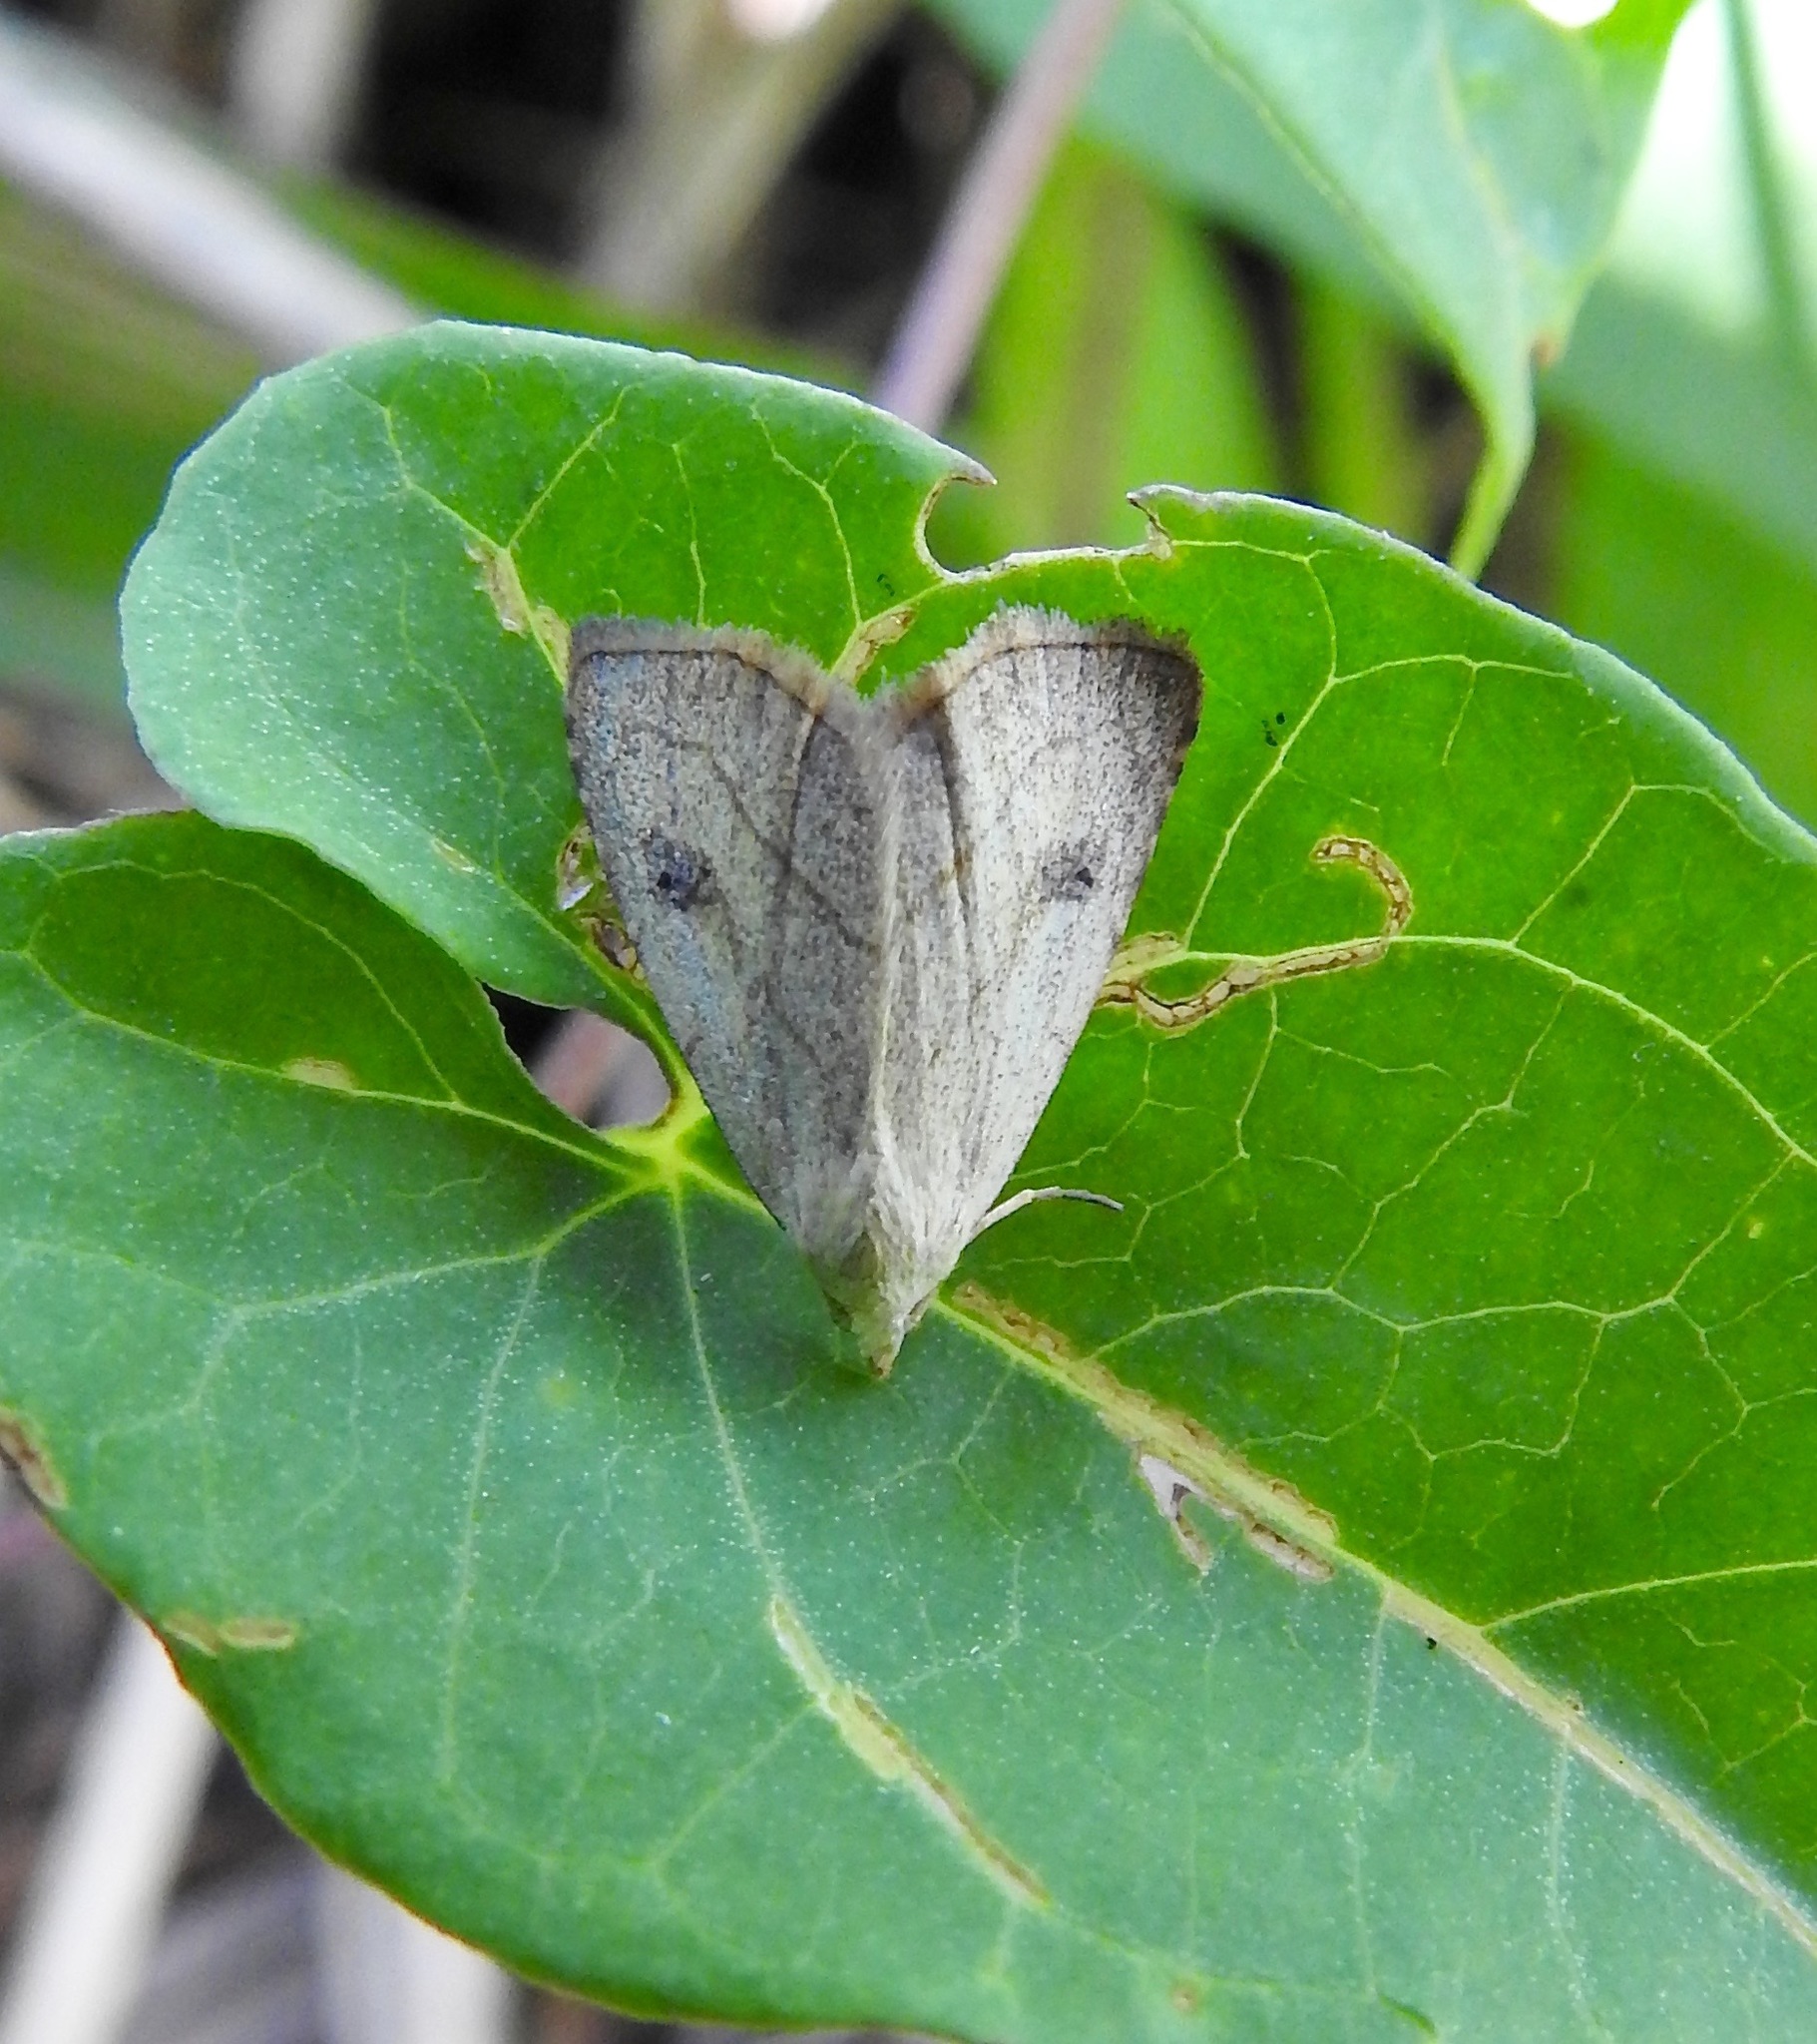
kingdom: Animalia
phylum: Arthropoda
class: Insecta
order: Lepidoptera
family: Erebidae
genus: Rivula
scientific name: Rivula propinqualis
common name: Spotted grass moth
